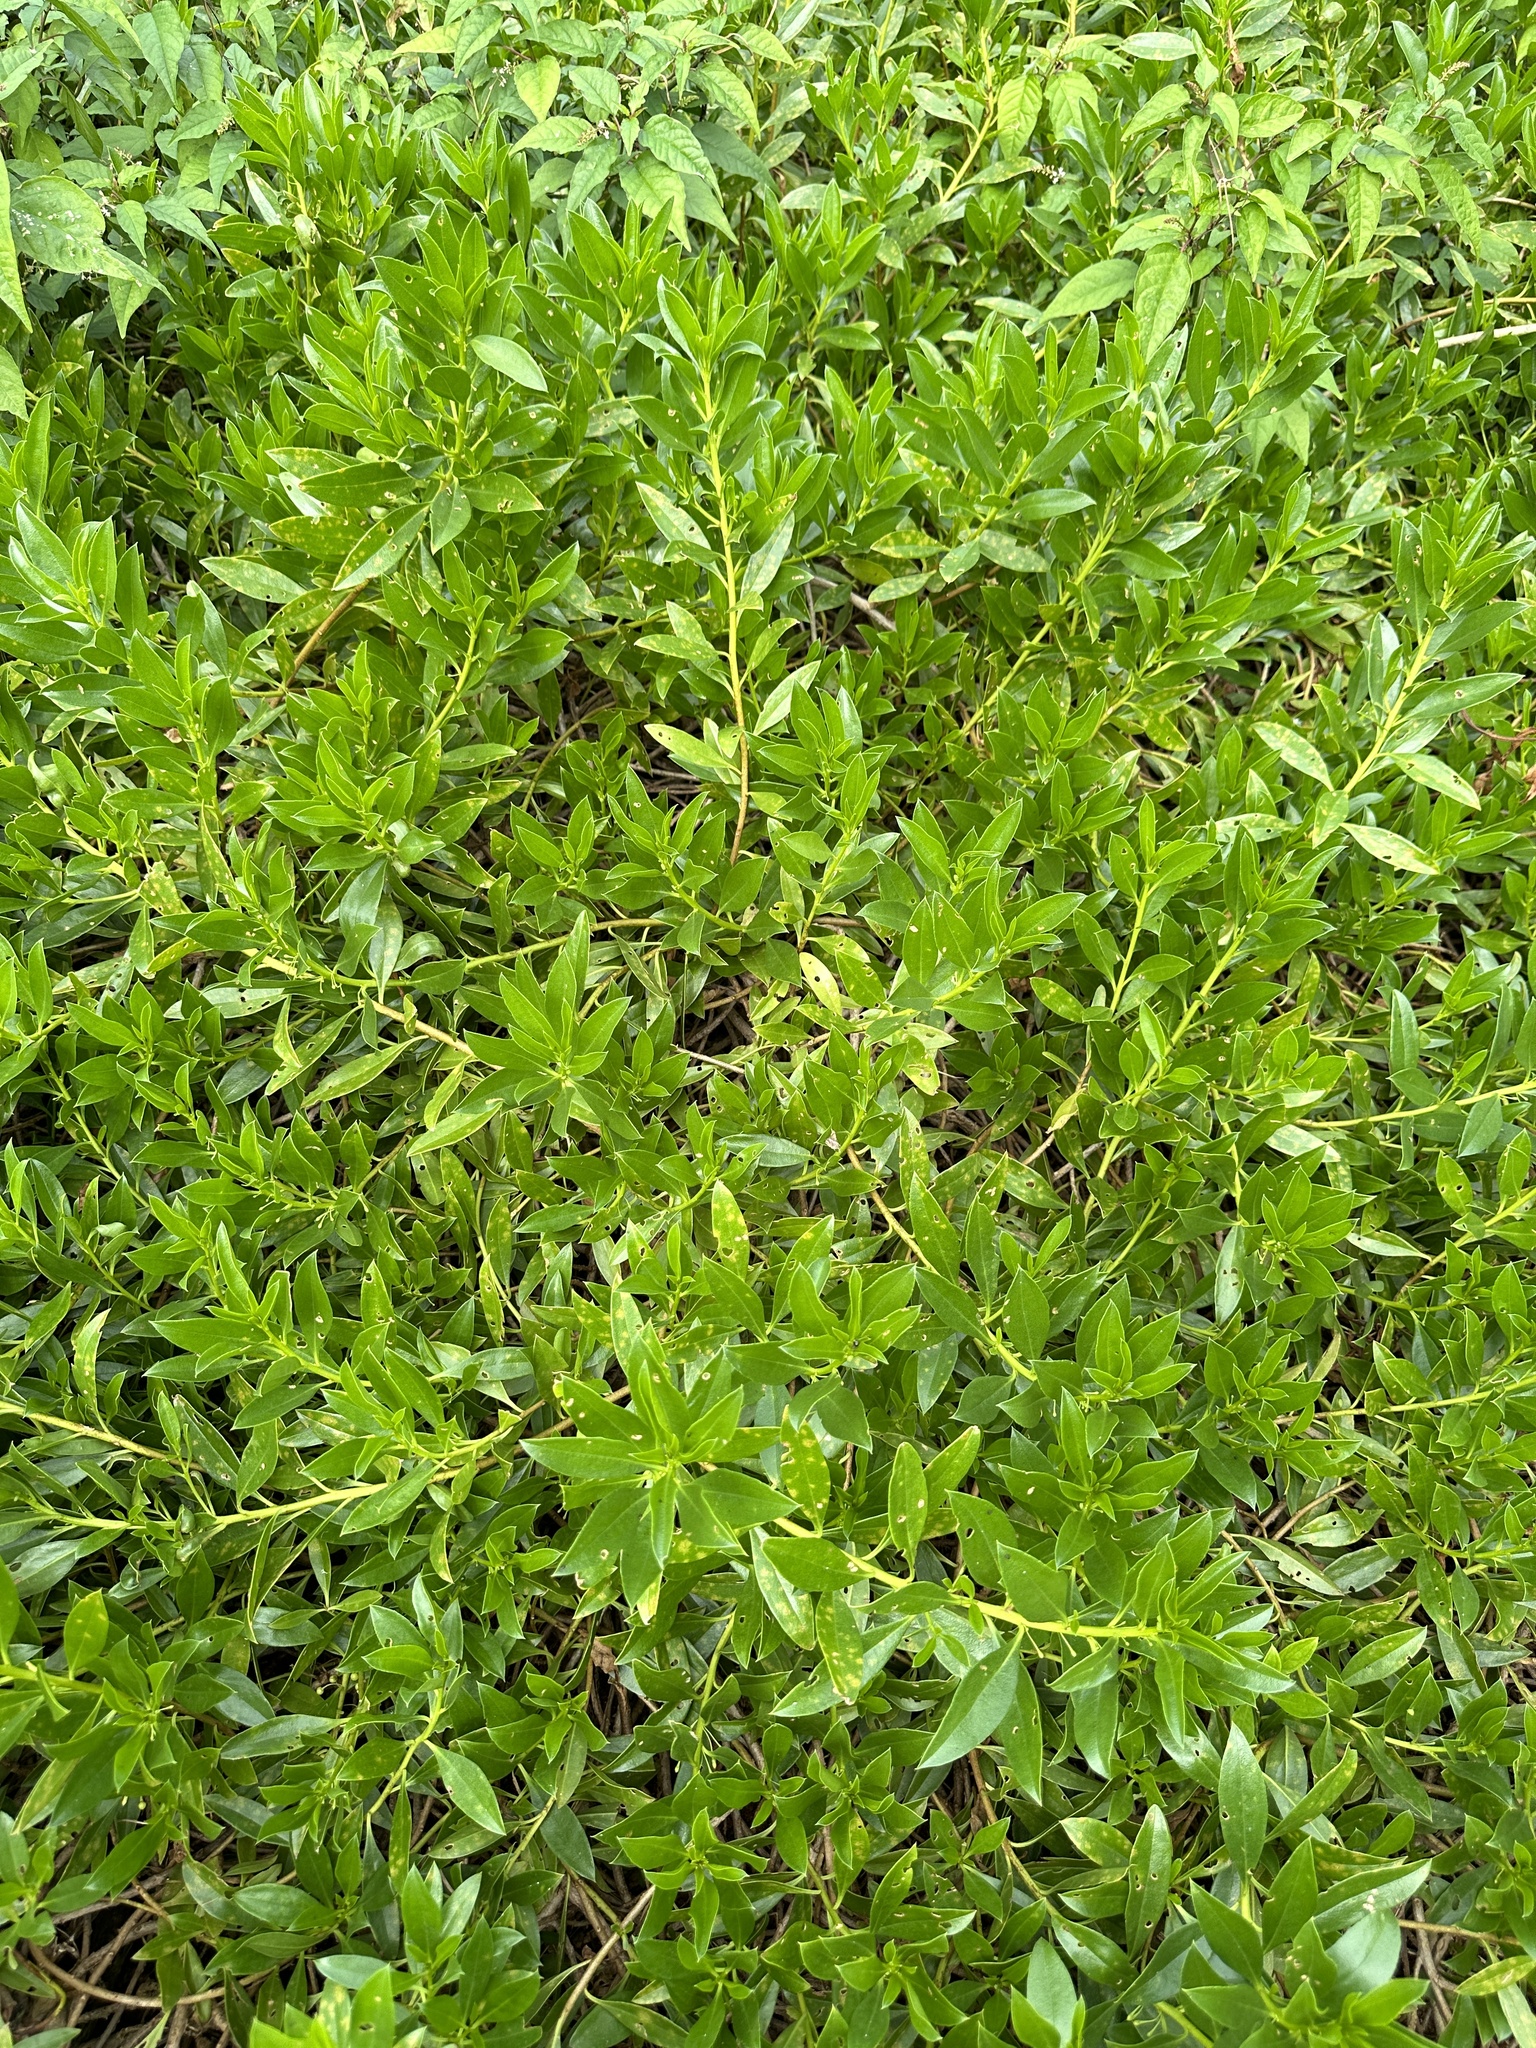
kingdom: Plantae
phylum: Tracheophyta
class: Magnoliopsida
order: Lamiales
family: Scrophulariaceae
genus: Myoporum
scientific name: Myoporum boninense
